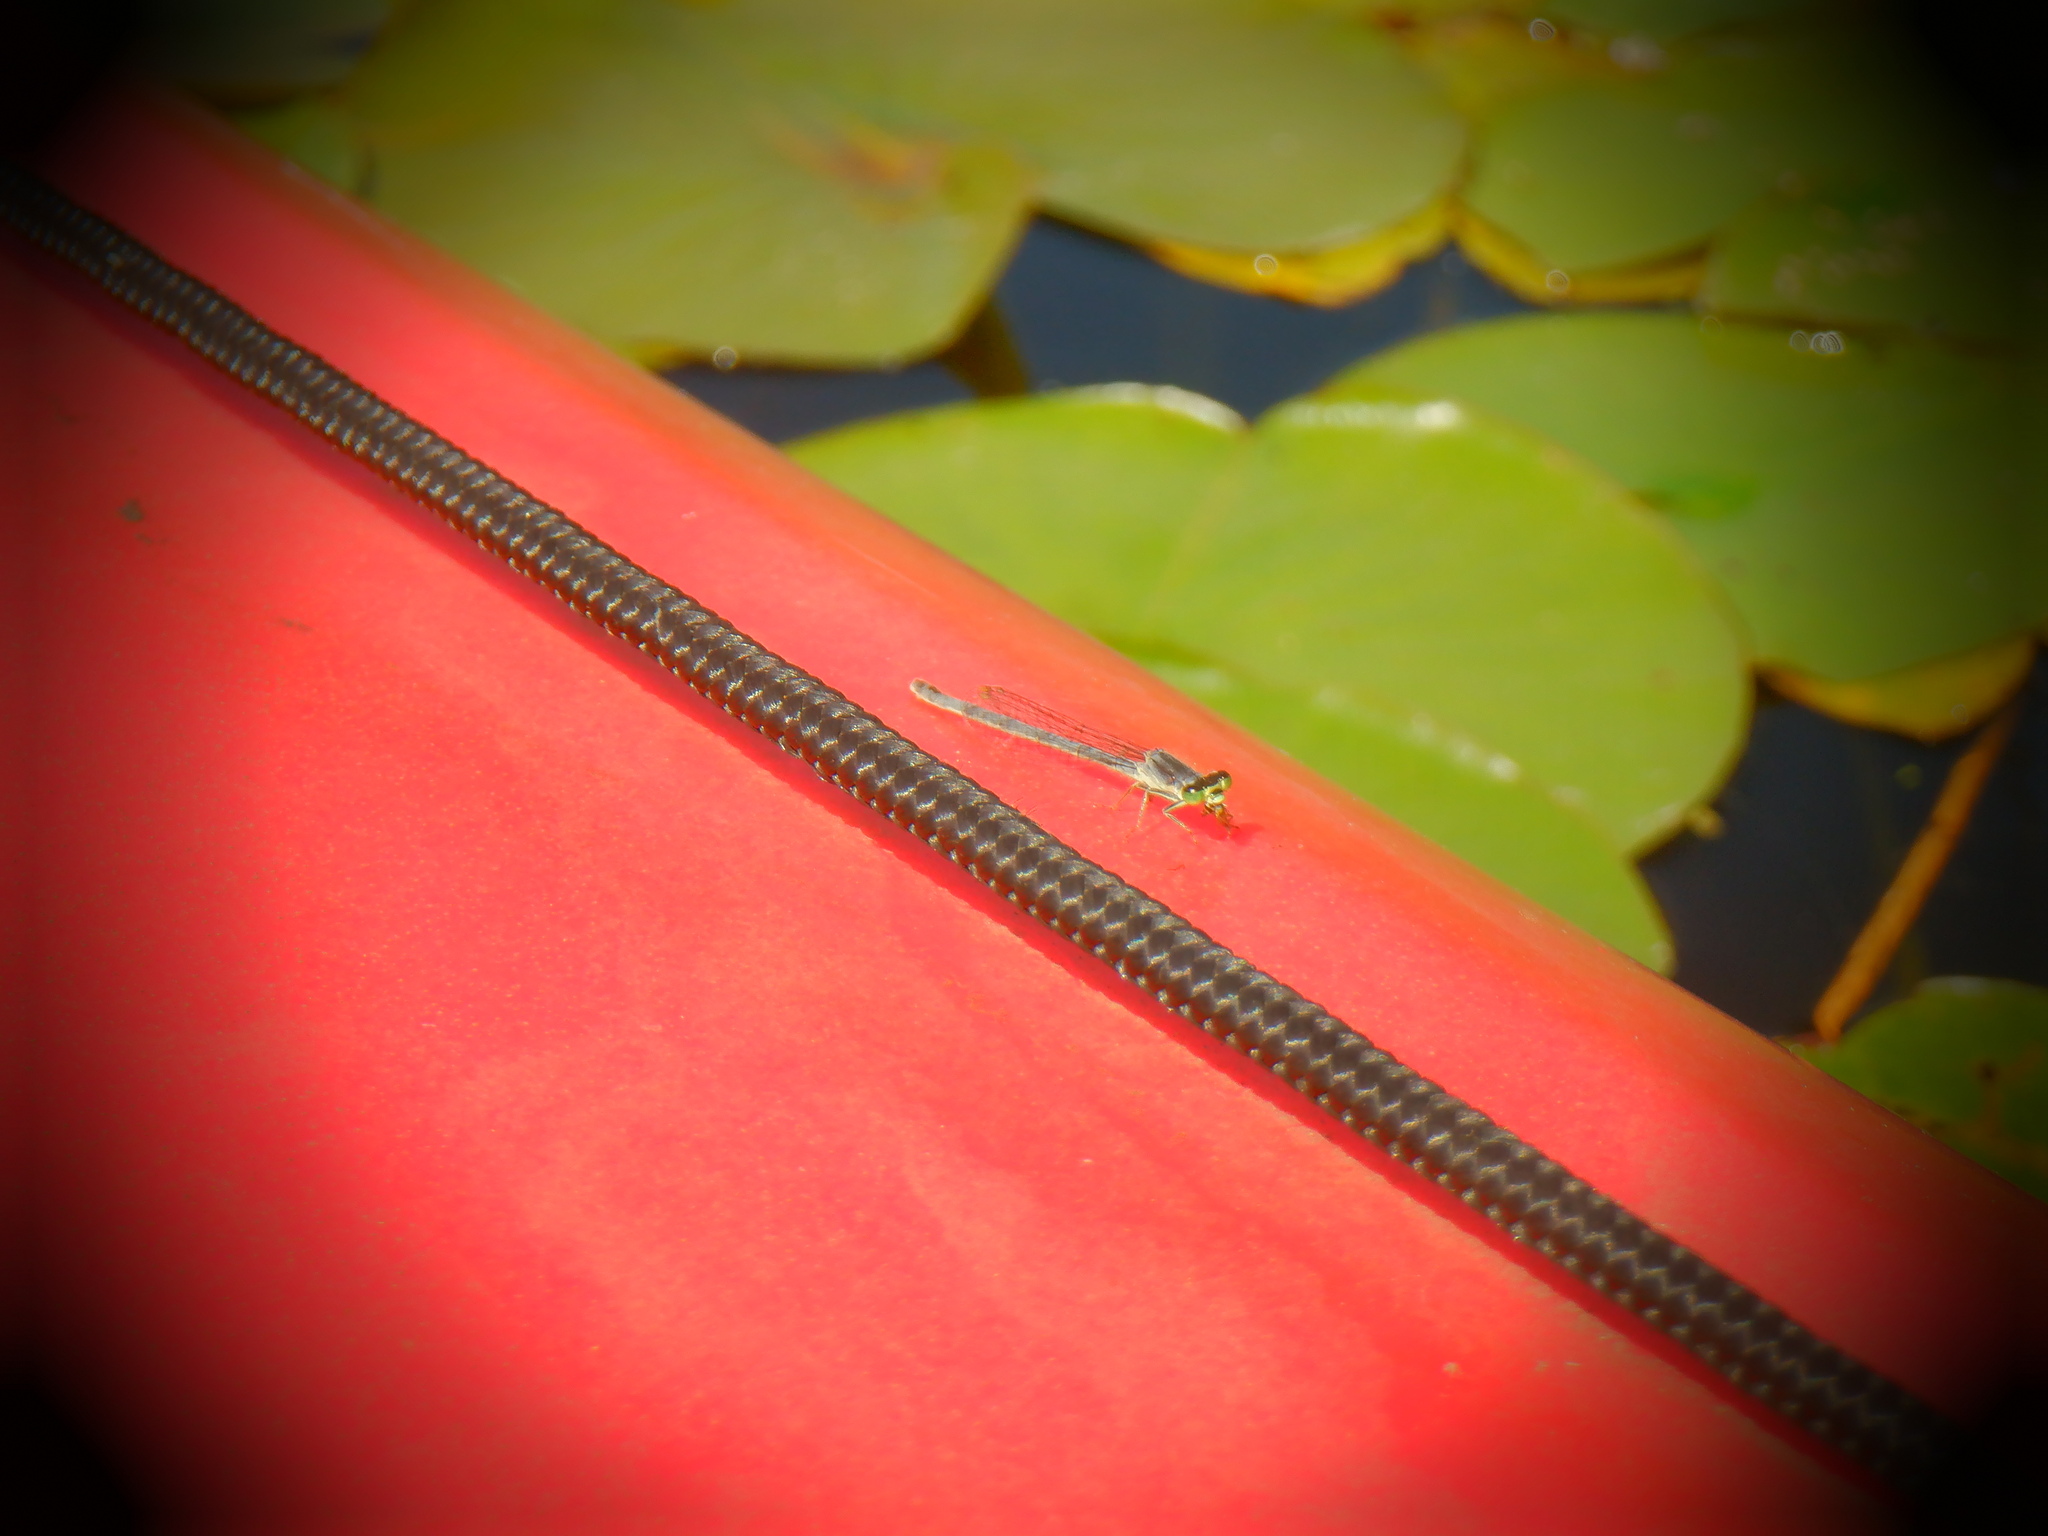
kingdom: Animalia
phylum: Arthropoda
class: Insecta
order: Odonata
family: Coenagrionidae
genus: Ischnura
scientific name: Ischnura verticalis
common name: Eastern forktail
